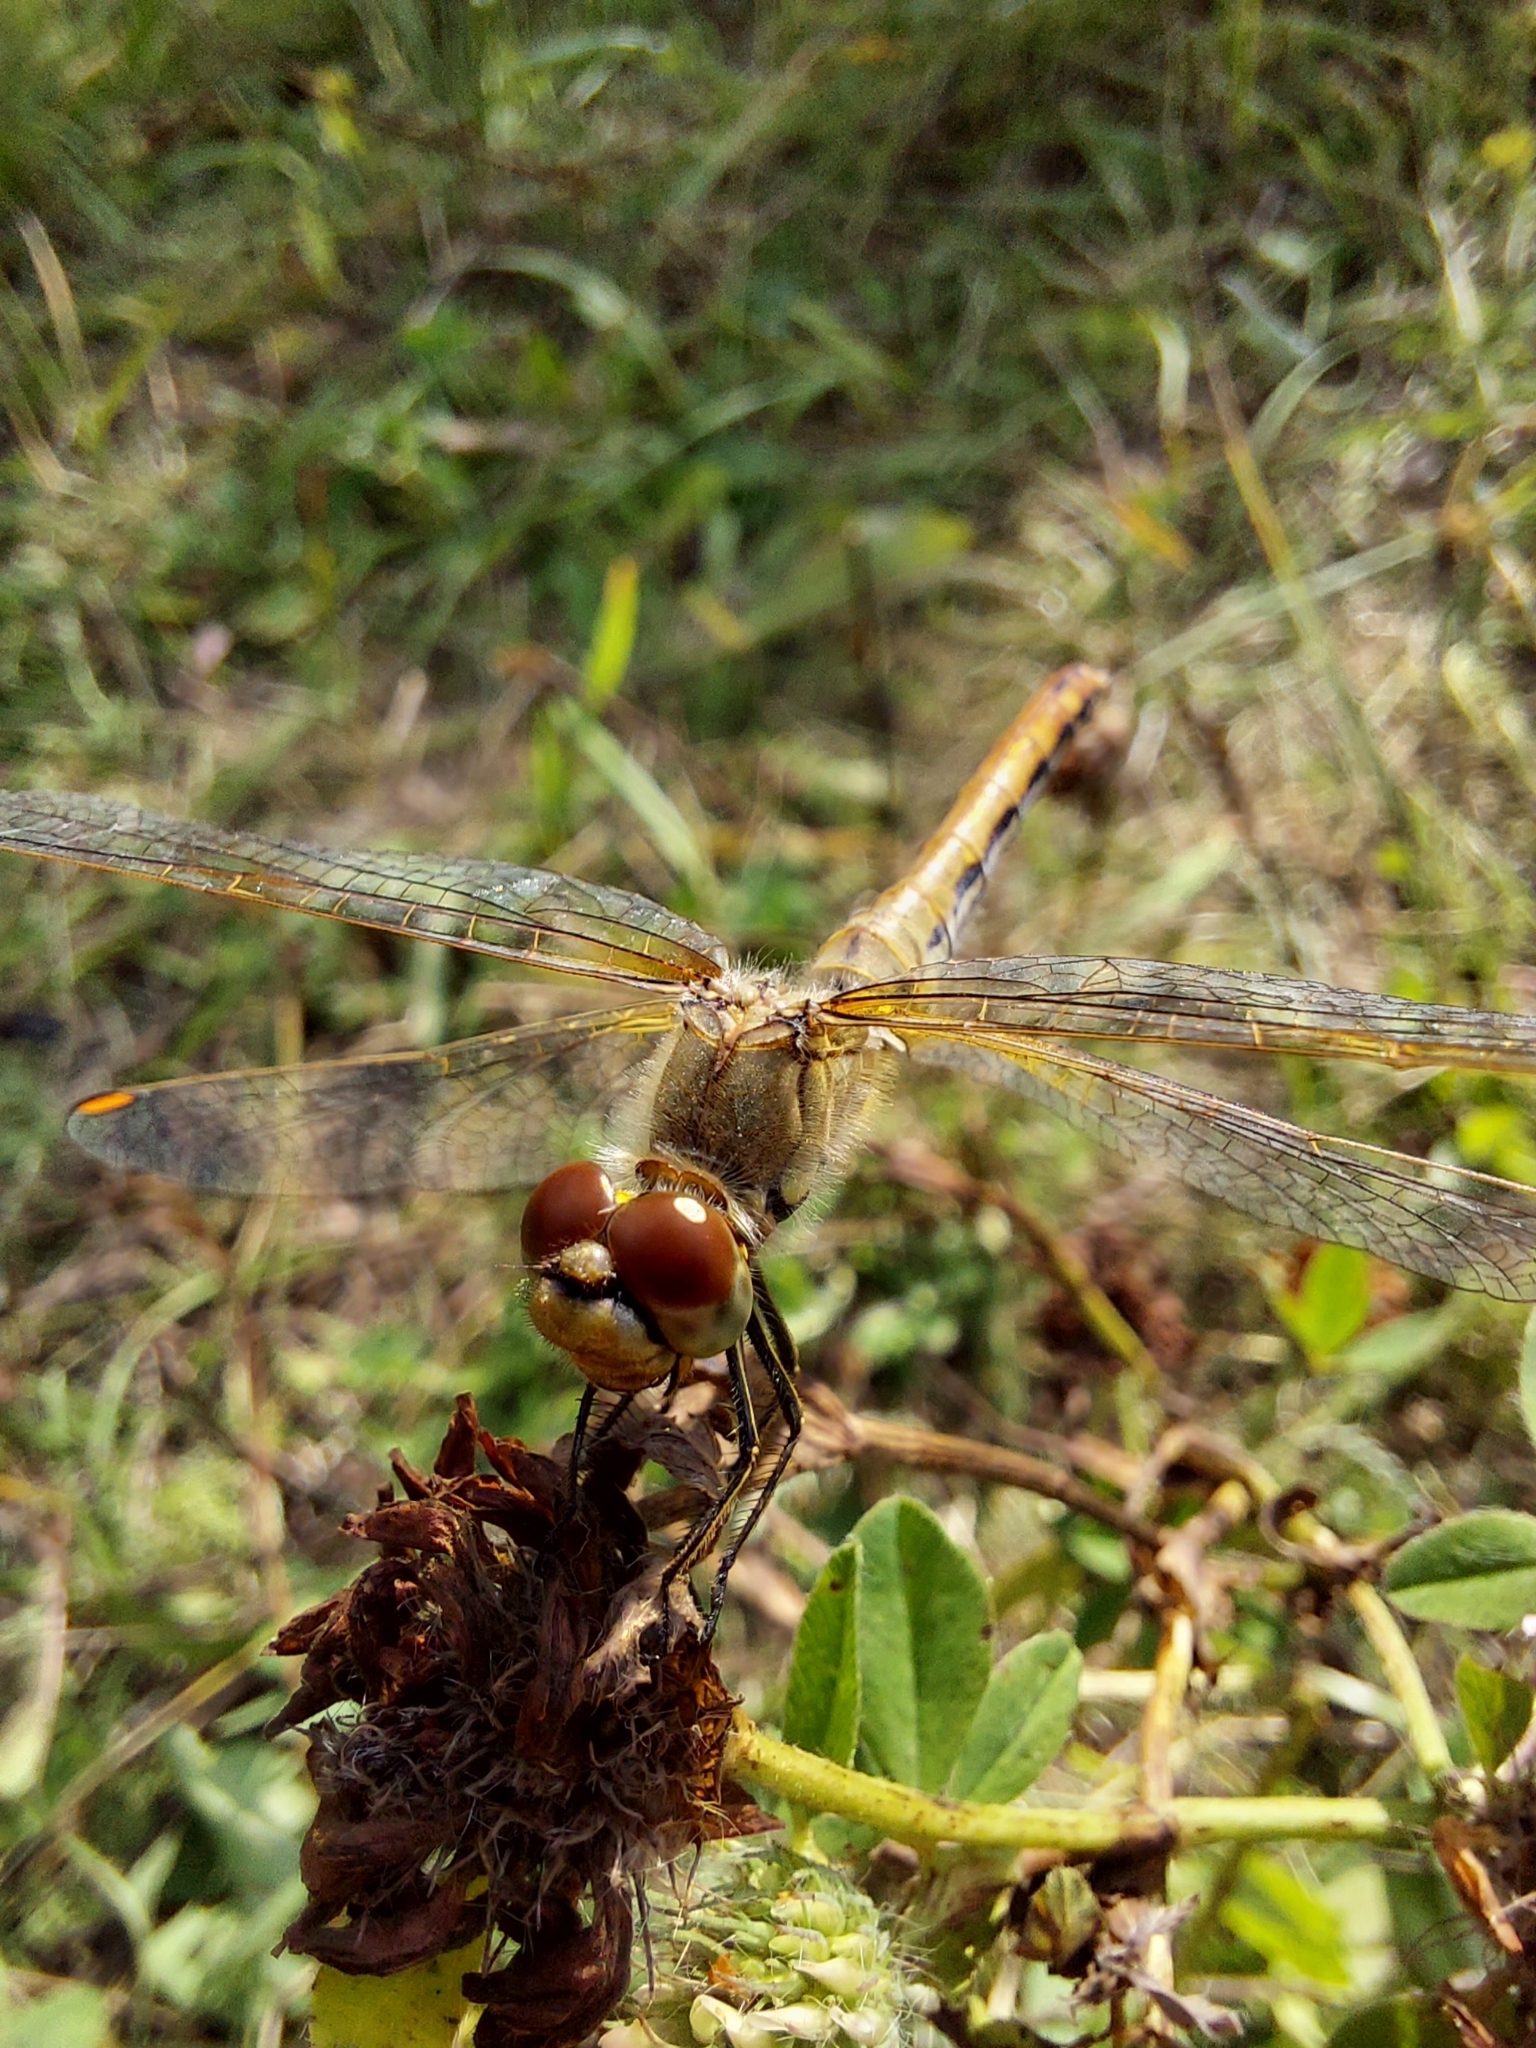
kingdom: Animalia
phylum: Arthropoda
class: Insecta
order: Odonata
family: Libellulidae
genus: Sympetrum
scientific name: Sympetrum flaveolum
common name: Yellow-winged darter
